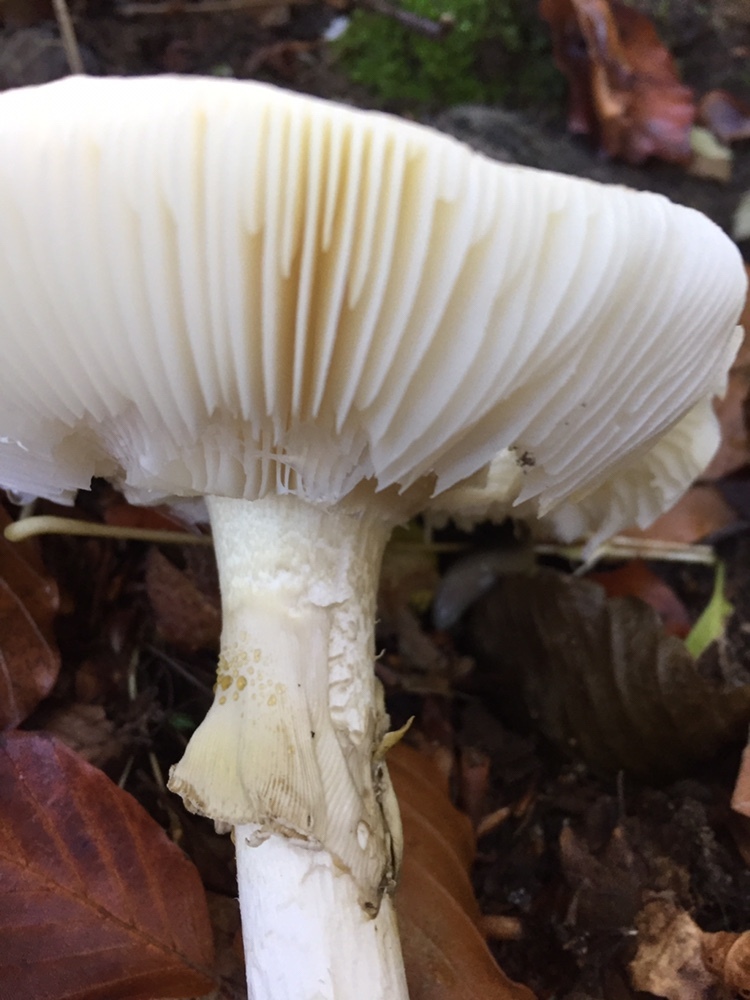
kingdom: Fungi
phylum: Basidiomycota
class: Agaricomycetes
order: Agaricales
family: Amanitaceae
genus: Amanita
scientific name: Amanita phalloides
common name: Death cap
